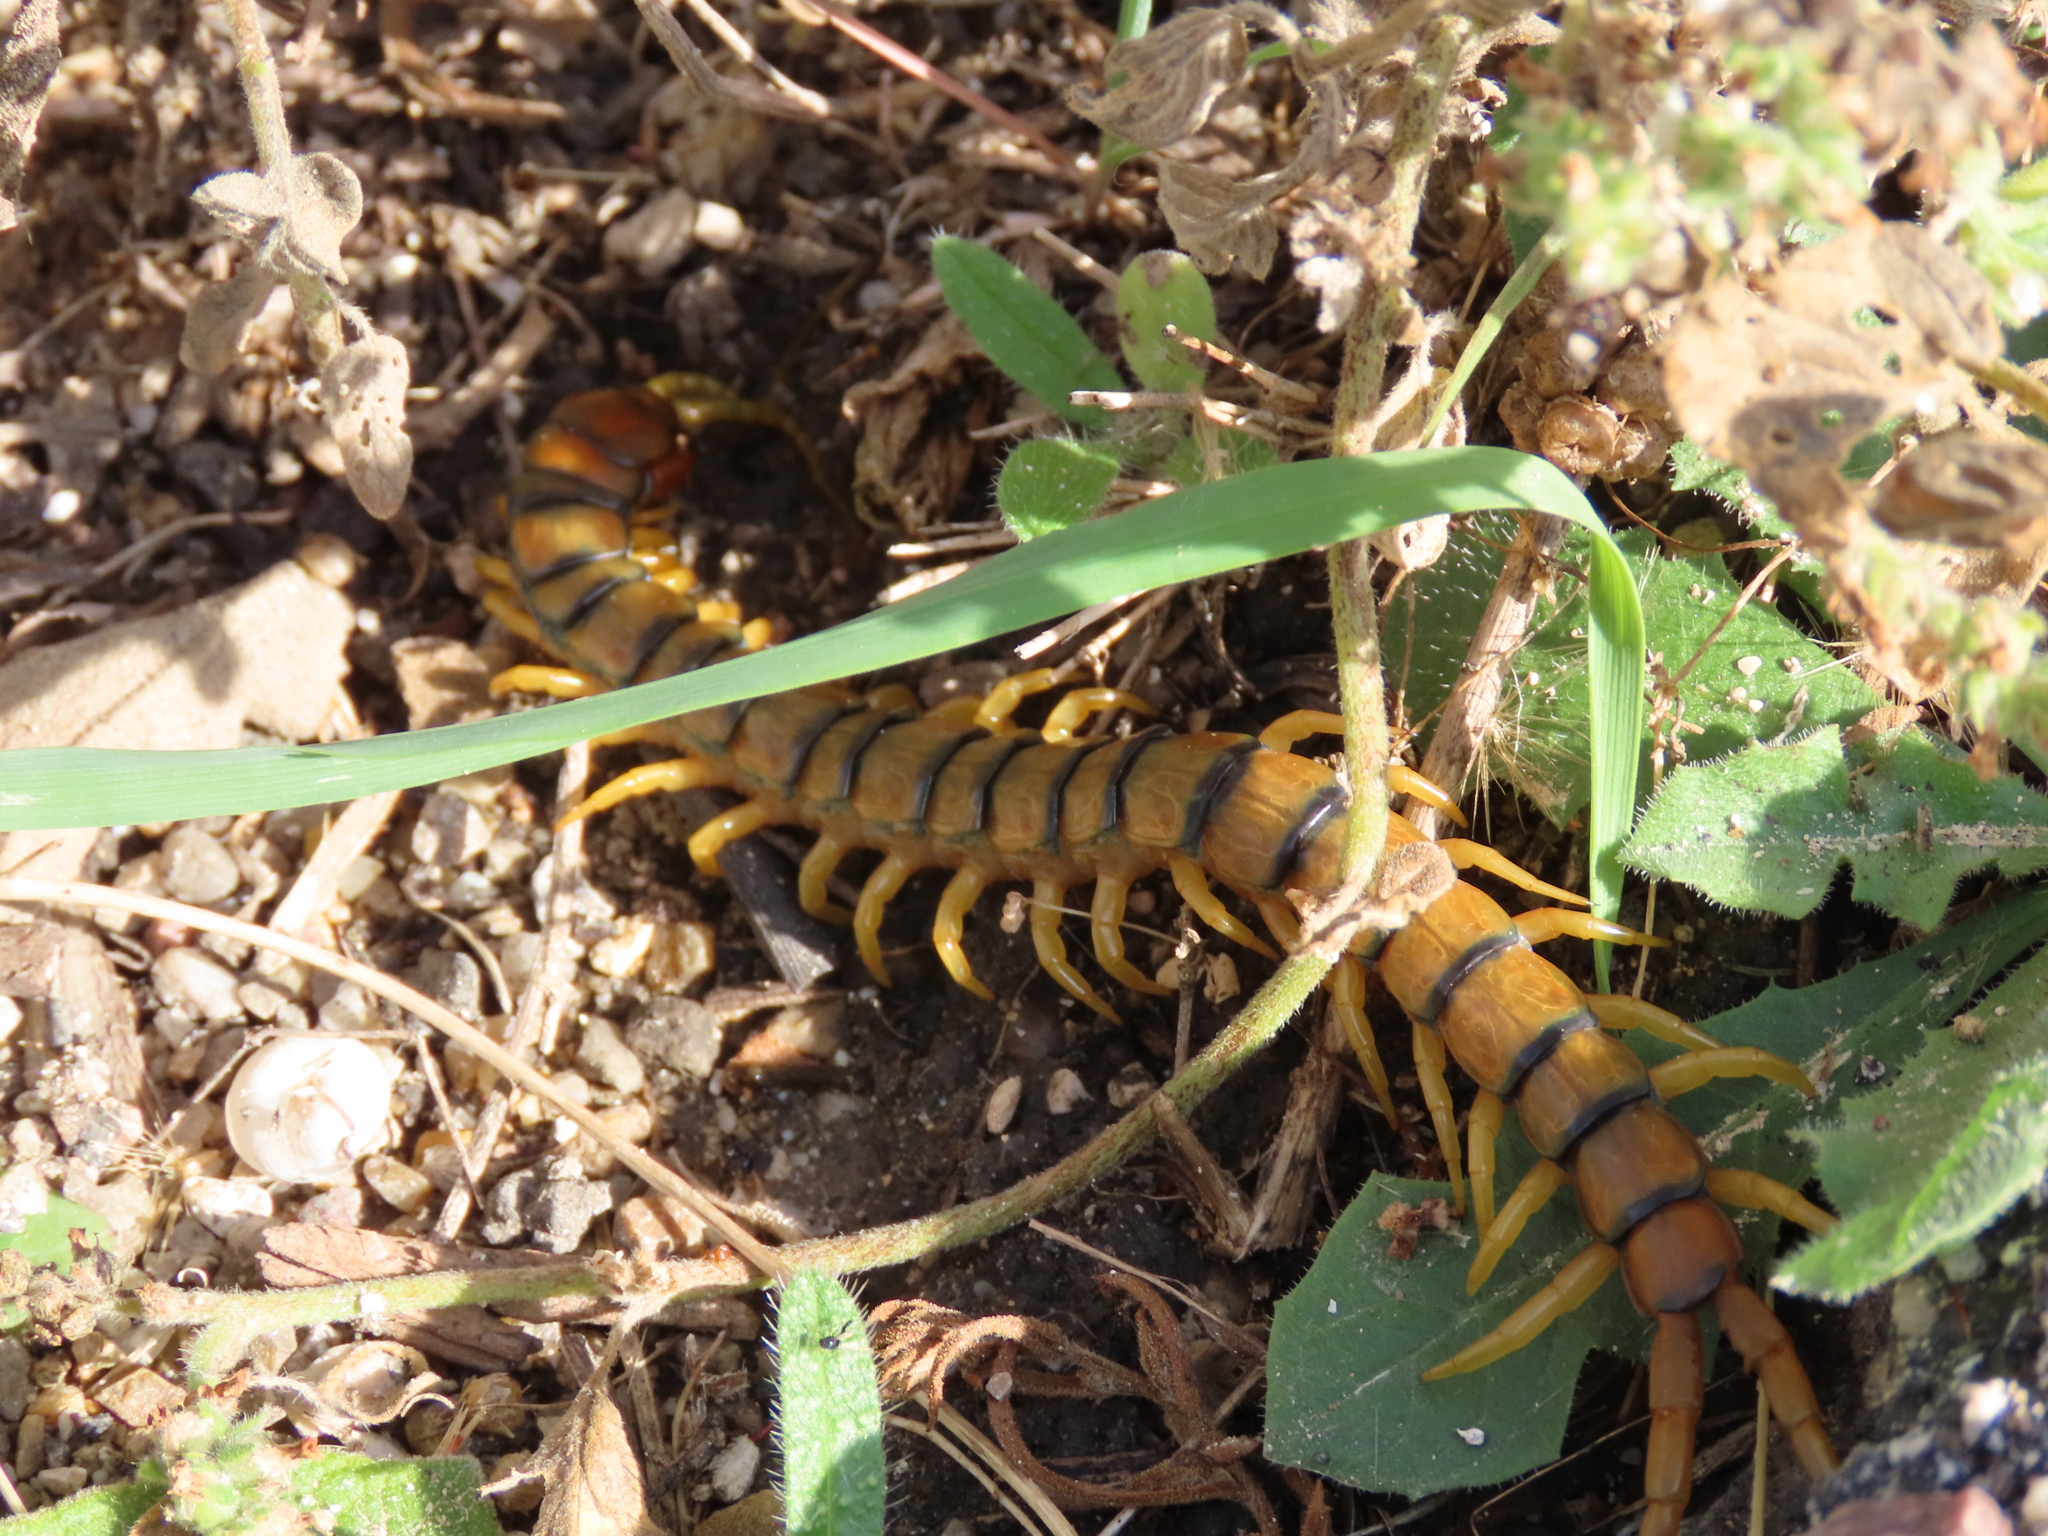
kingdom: Animalia
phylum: Arthropoda
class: Chilopoda
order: Scolopendromorpha
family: Scolopendridae
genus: Scolopendra
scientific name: Scolopendra cingulata
